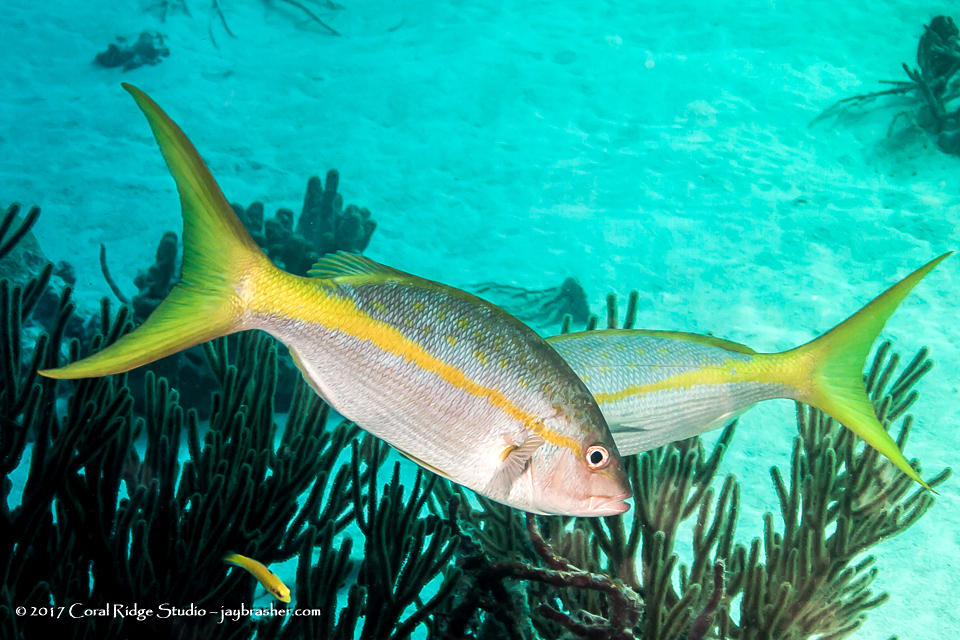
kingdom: Animalia
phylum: Chordata
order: Perciformes
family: Lutjanidae
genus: Ocyurus
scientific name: Ocyurus chrysurus
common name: Yellowtail snapper
